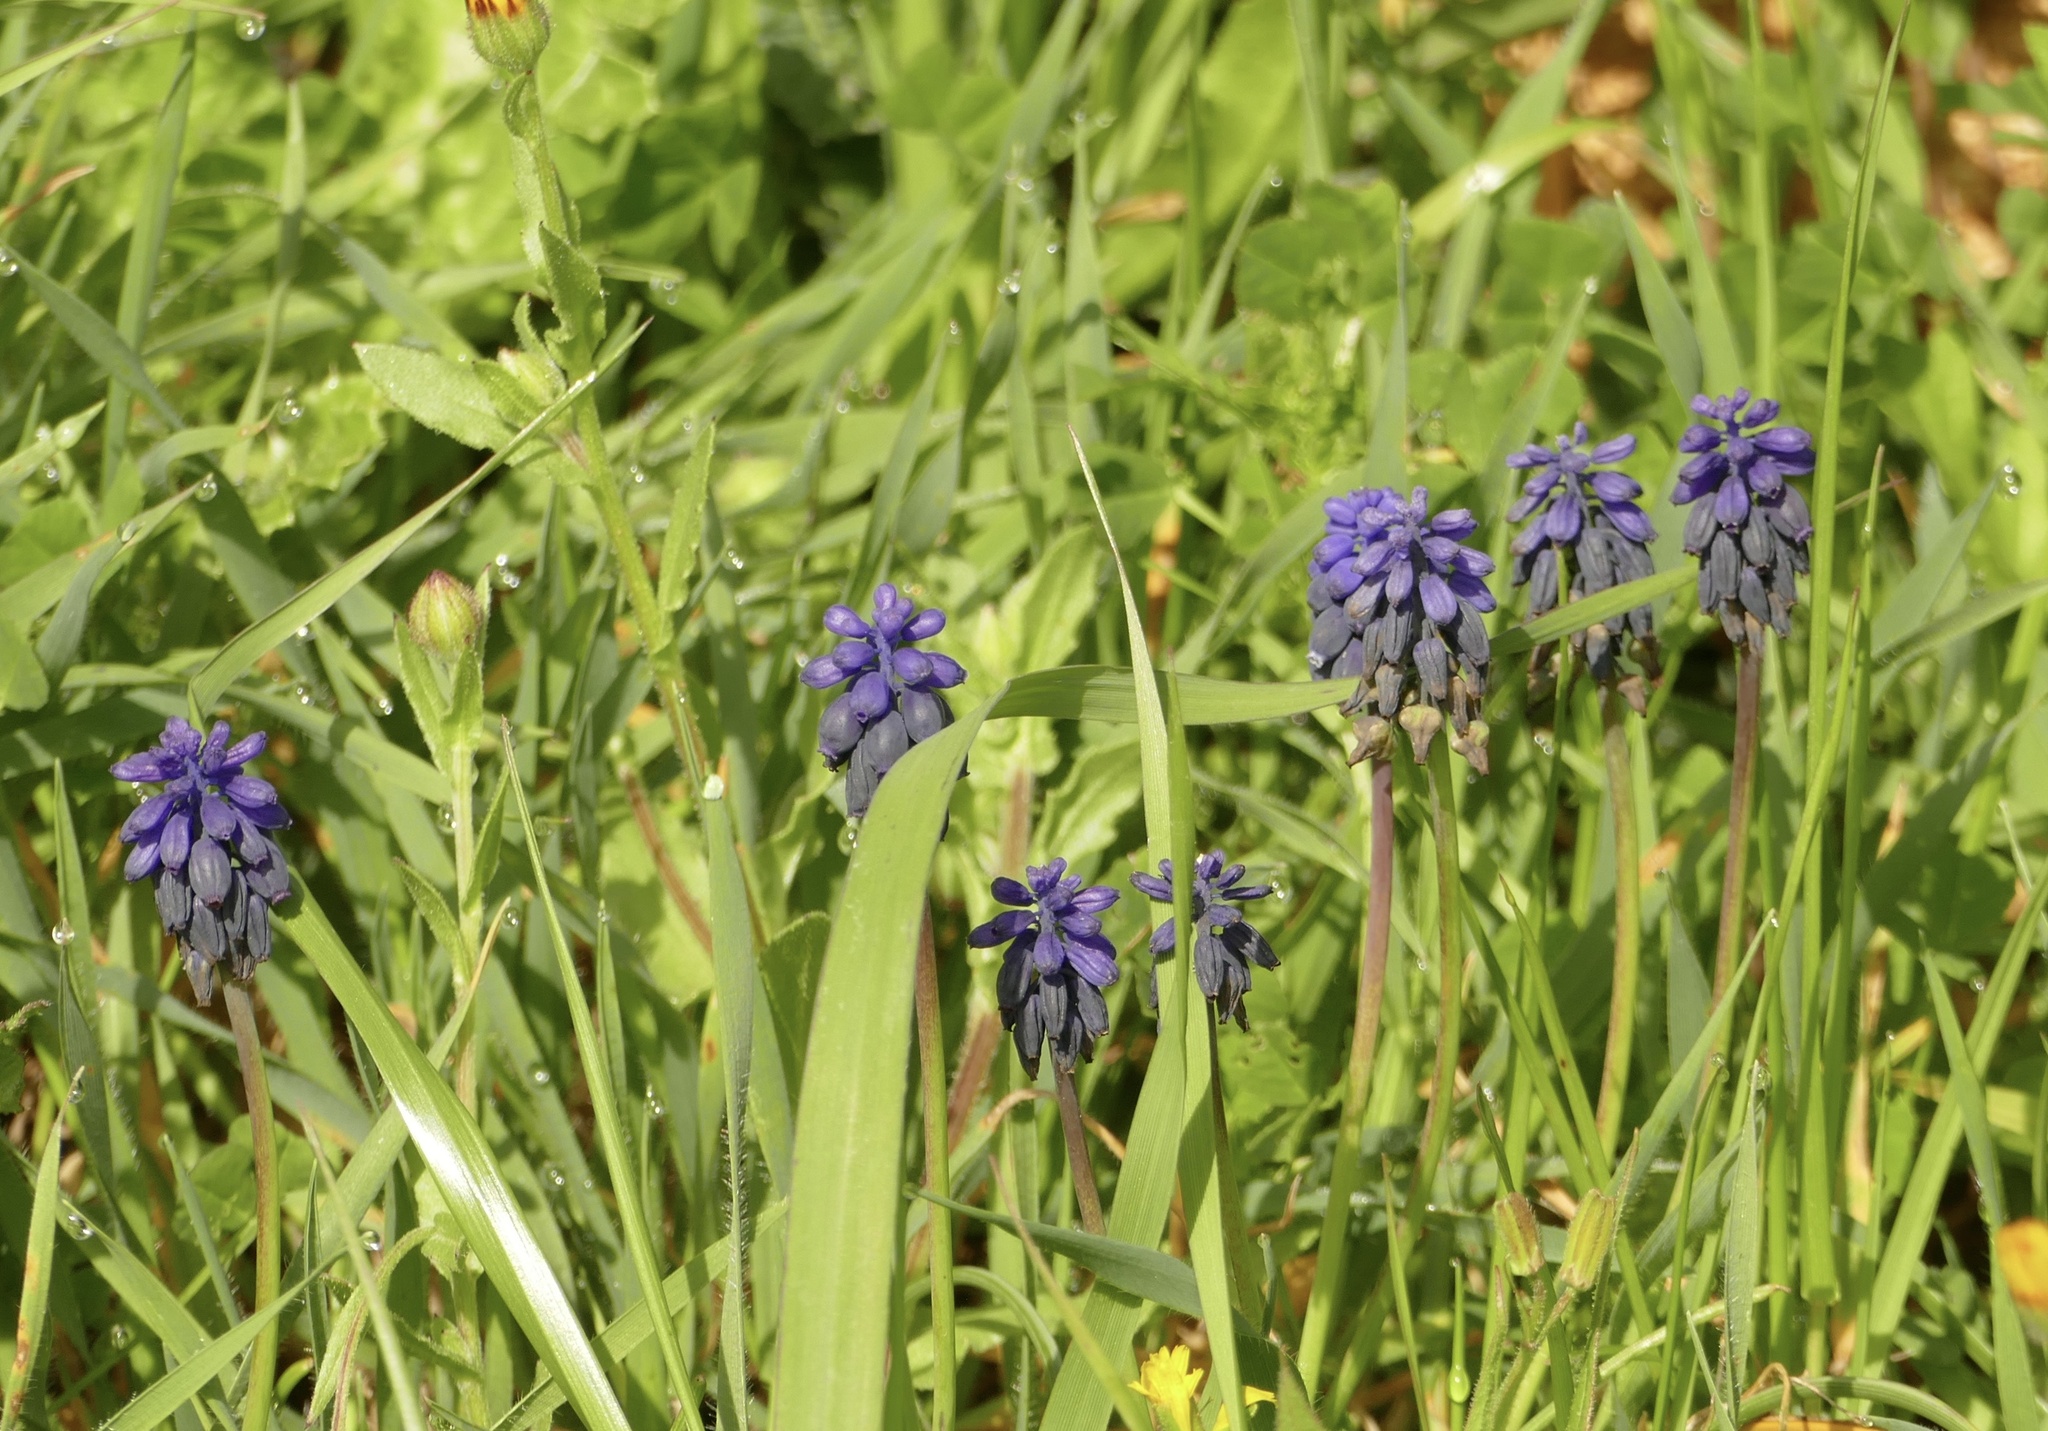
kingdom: Plantae
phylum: Tracheophyta
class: Liliopsida
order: Asparagales
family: Asparagaceae
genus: Muscari
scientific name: Muscari neglectum
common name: Grape-hyacinth
